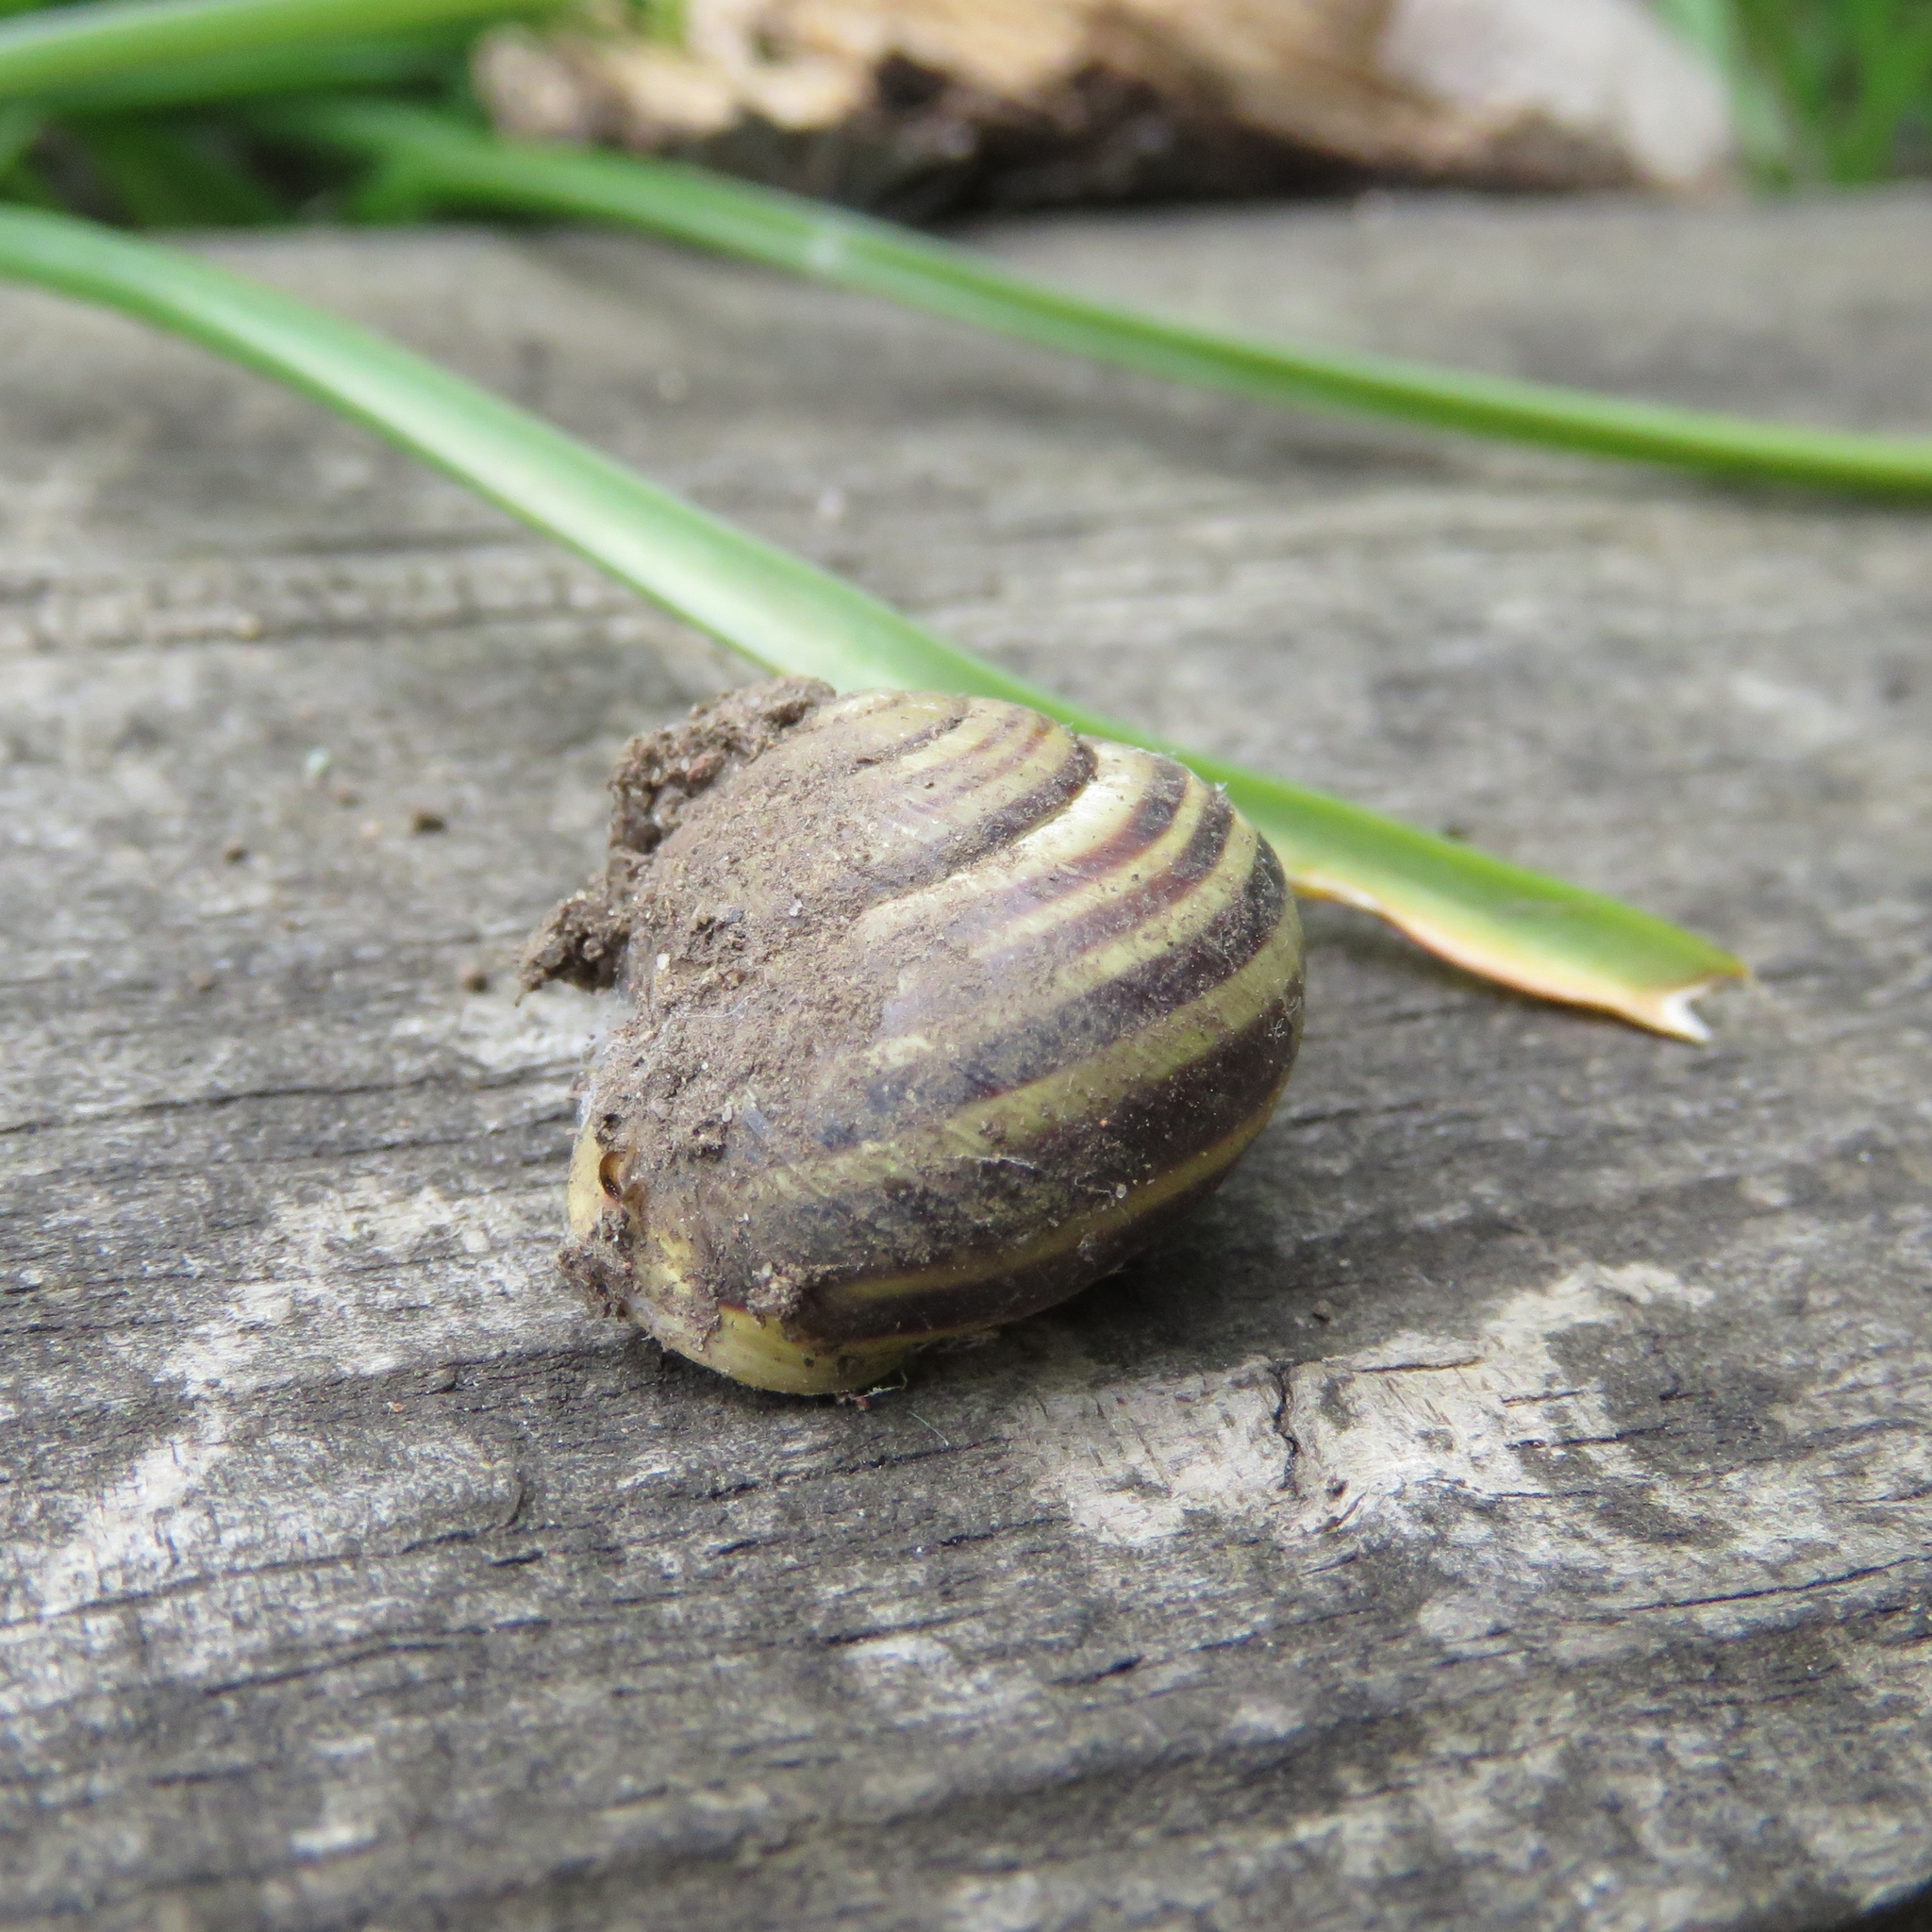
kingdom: Animalia
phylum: Mollusca
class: Gastropoda
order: Stylommatophora
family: Helicidae
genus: Cepaea
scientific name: Cepaea hortensis
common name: White-lip gardensnail
